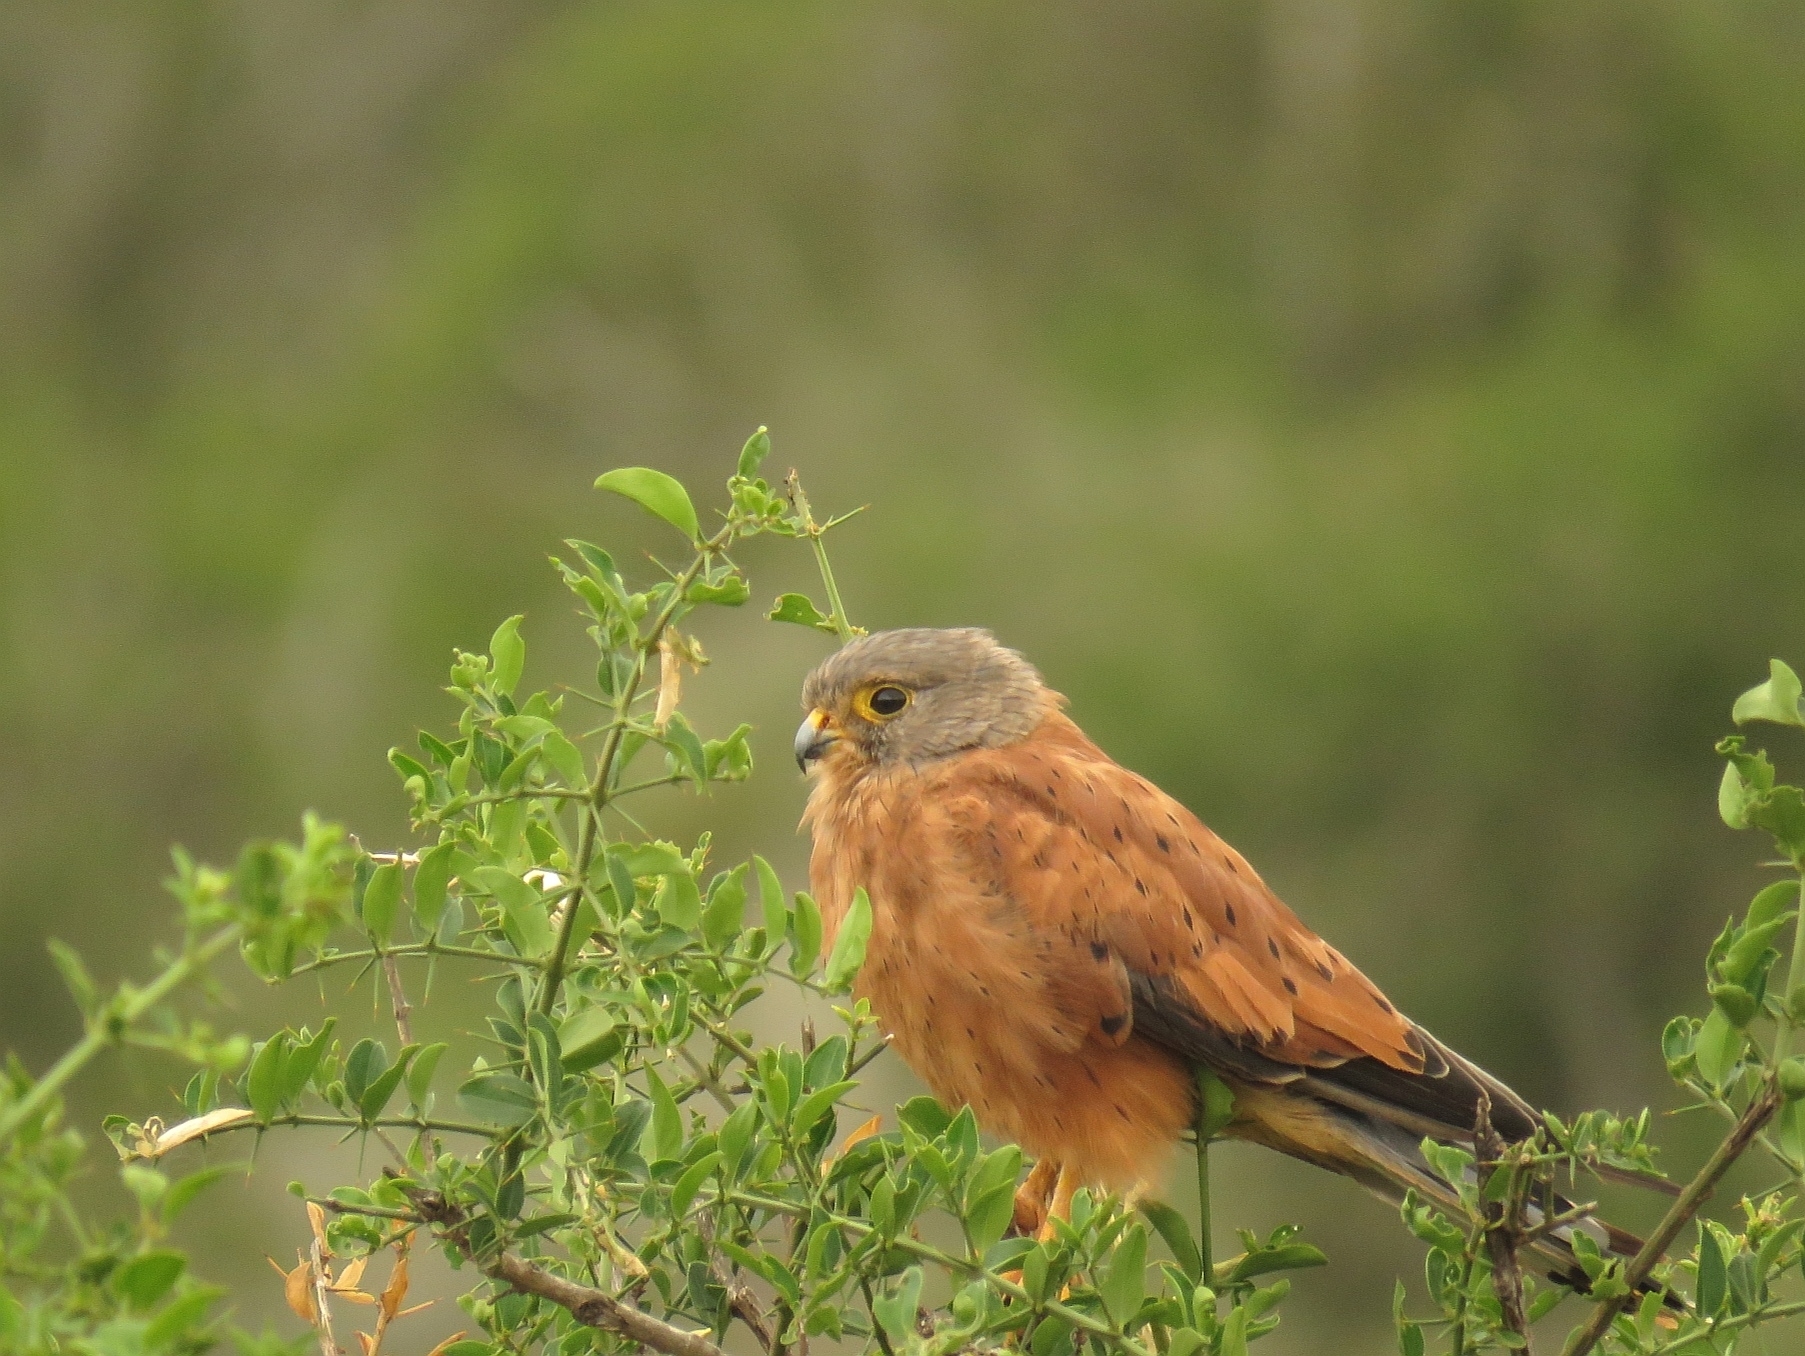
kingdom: Animalia
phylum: Chordata
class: Aves
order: Falconiformes
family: Falconidae
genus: Falco
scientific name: Falco rupicolus
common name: Rock kestrel
